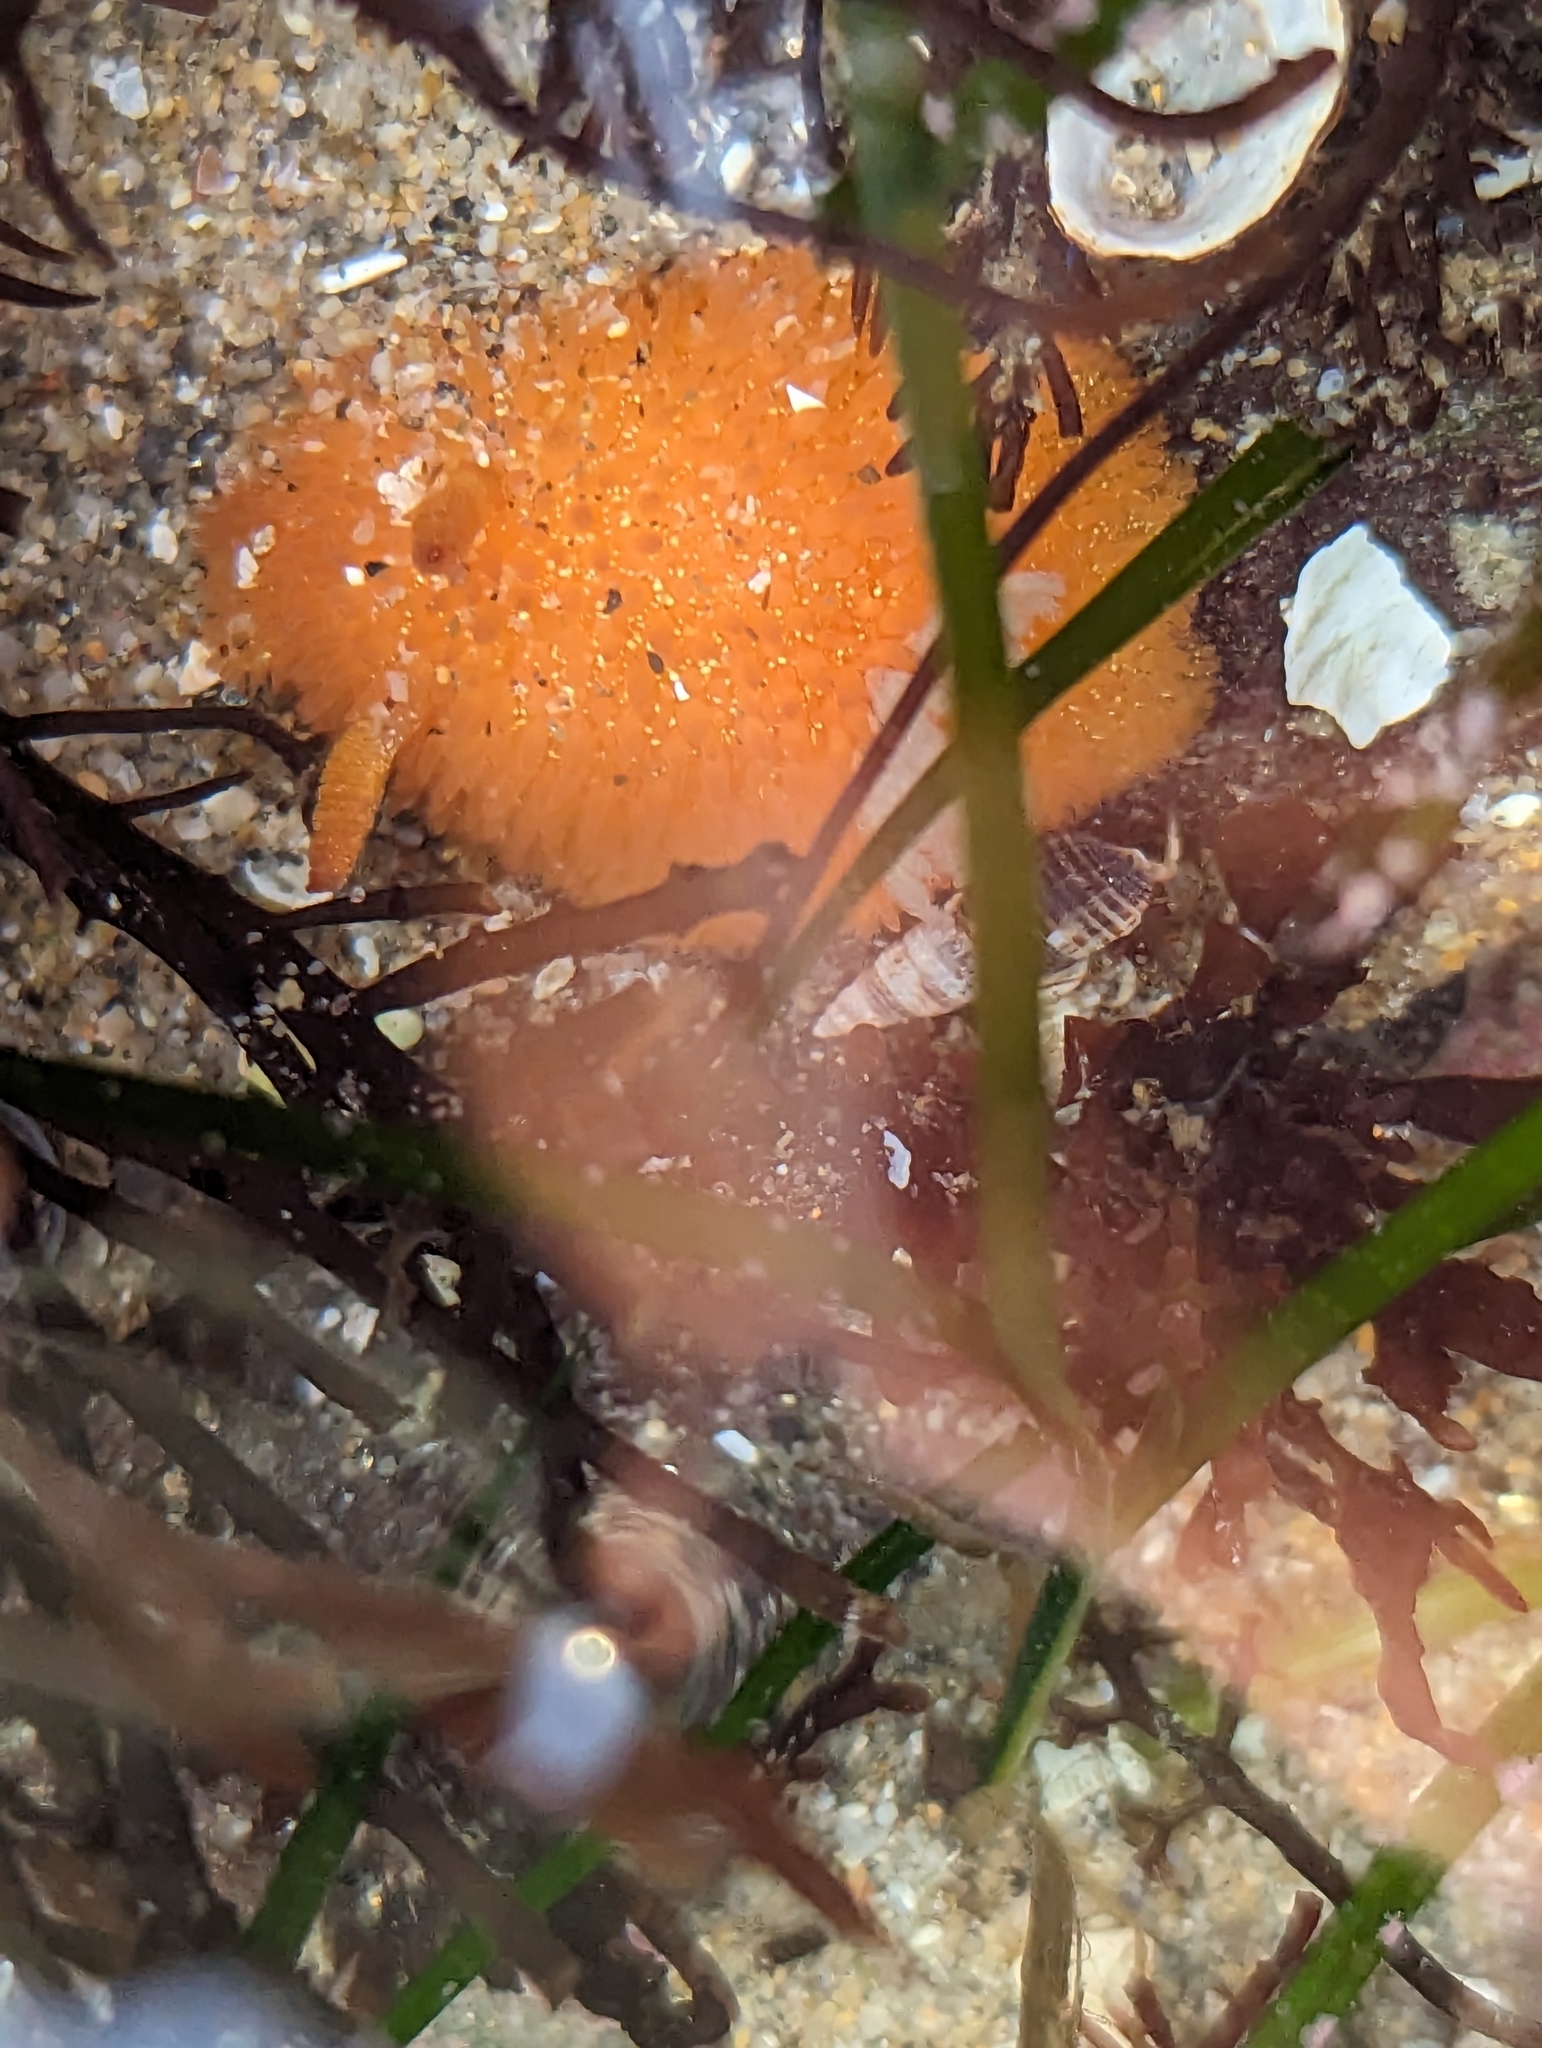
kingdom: Animalia
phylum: Mollusca
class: Gastropoda
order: Nudibranchia
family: Onchidorididae
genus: Acanthodoris
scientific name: Acanthodoris lutea
